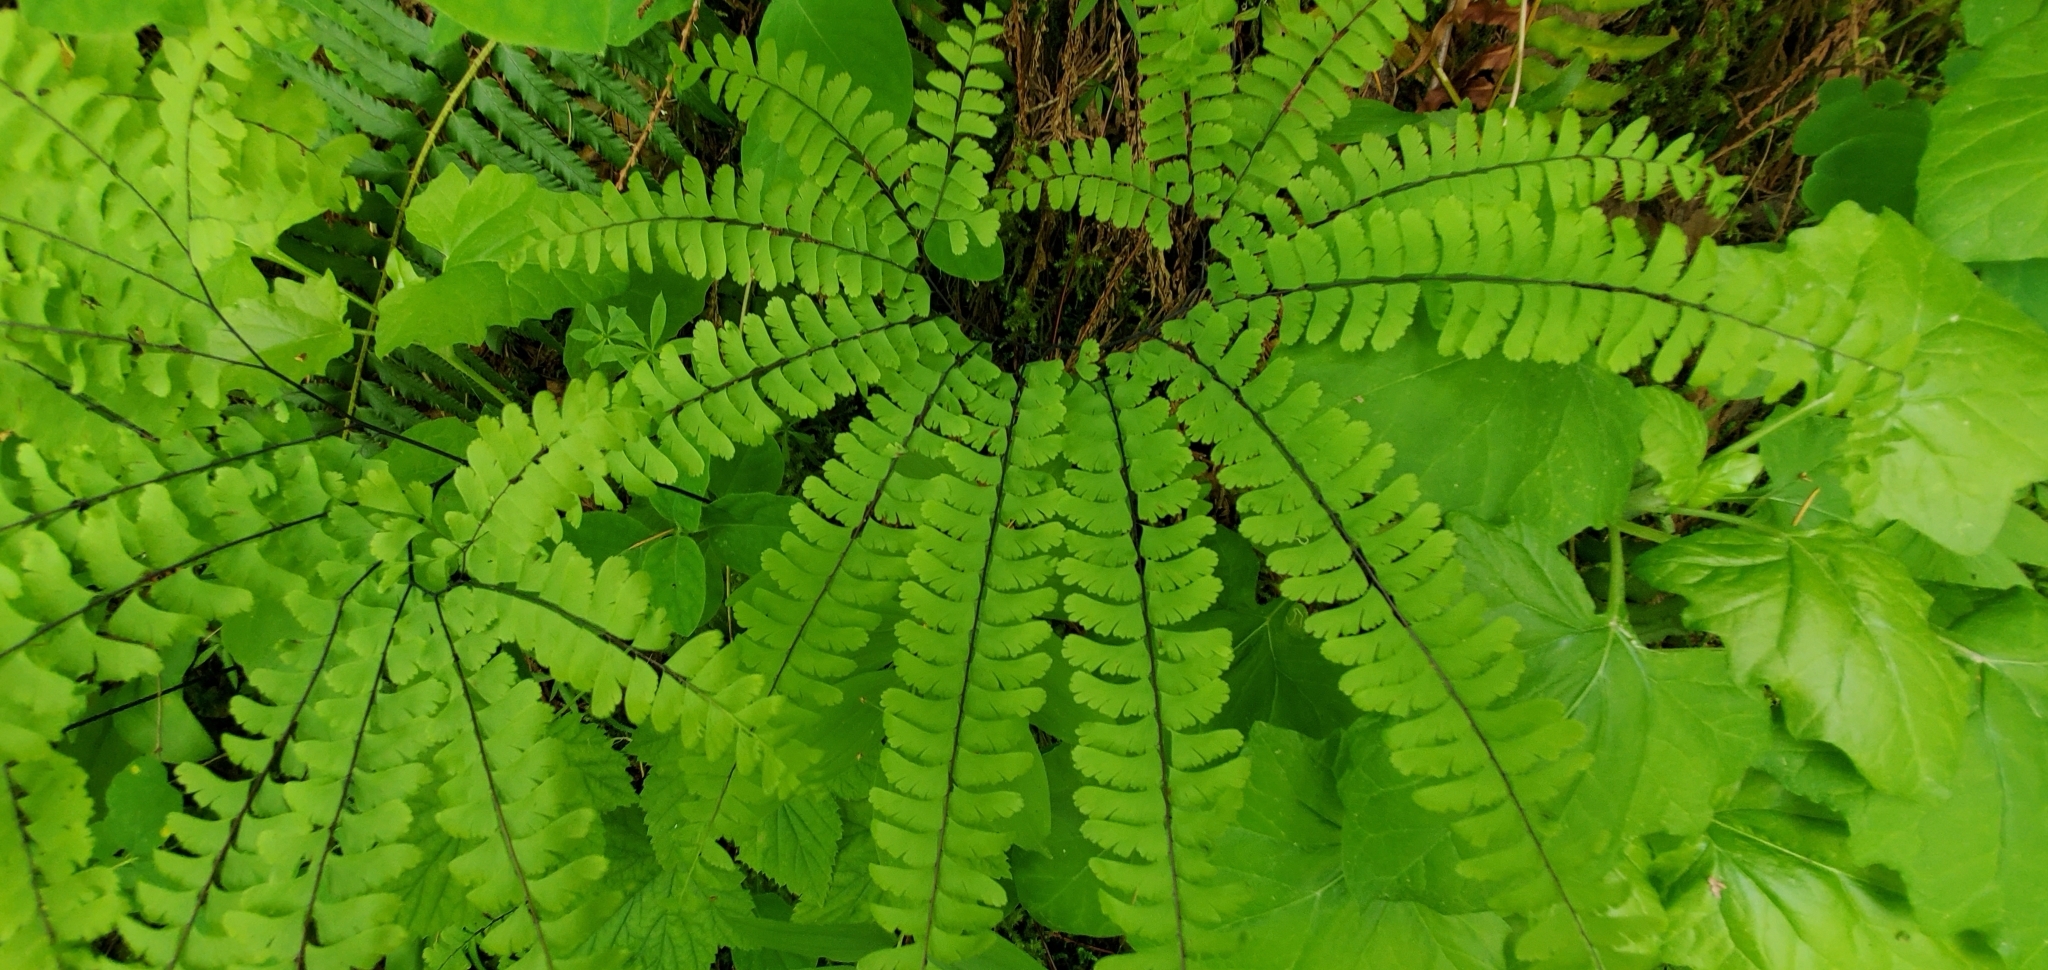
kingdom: Plantae
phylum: Tracheophyta
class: Polypodiopsida
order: Polypodiales
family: Pteridaceae
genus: Adiantum
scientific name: Adiantum aleuticum
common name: Aleutian maidenhair fern
